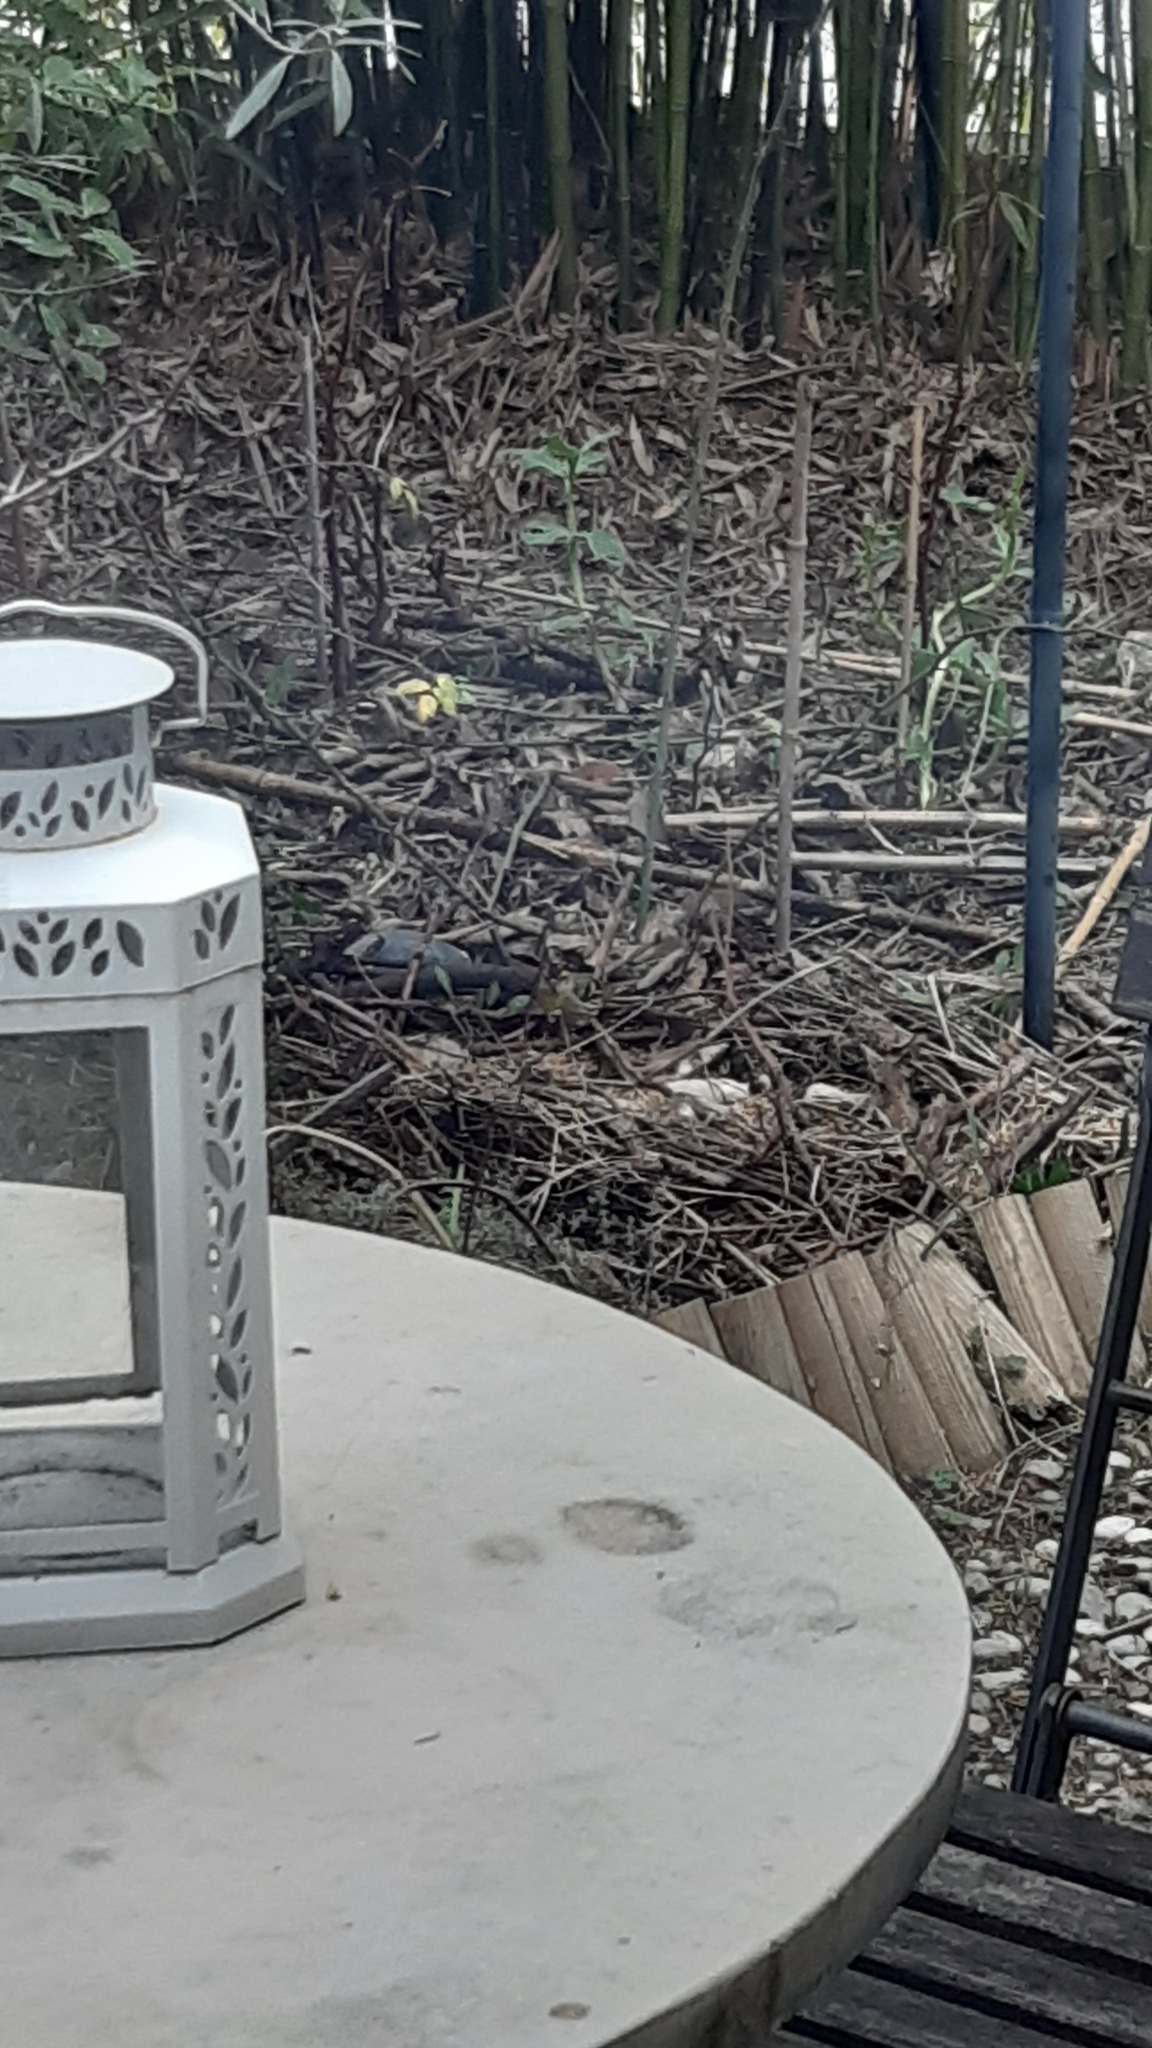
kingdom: Animalia
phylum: Chordata
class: Aves
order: Passeriformes
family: Fringillidae
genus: Spinus
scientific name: Spinus spinus
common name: Eurasian siskin
